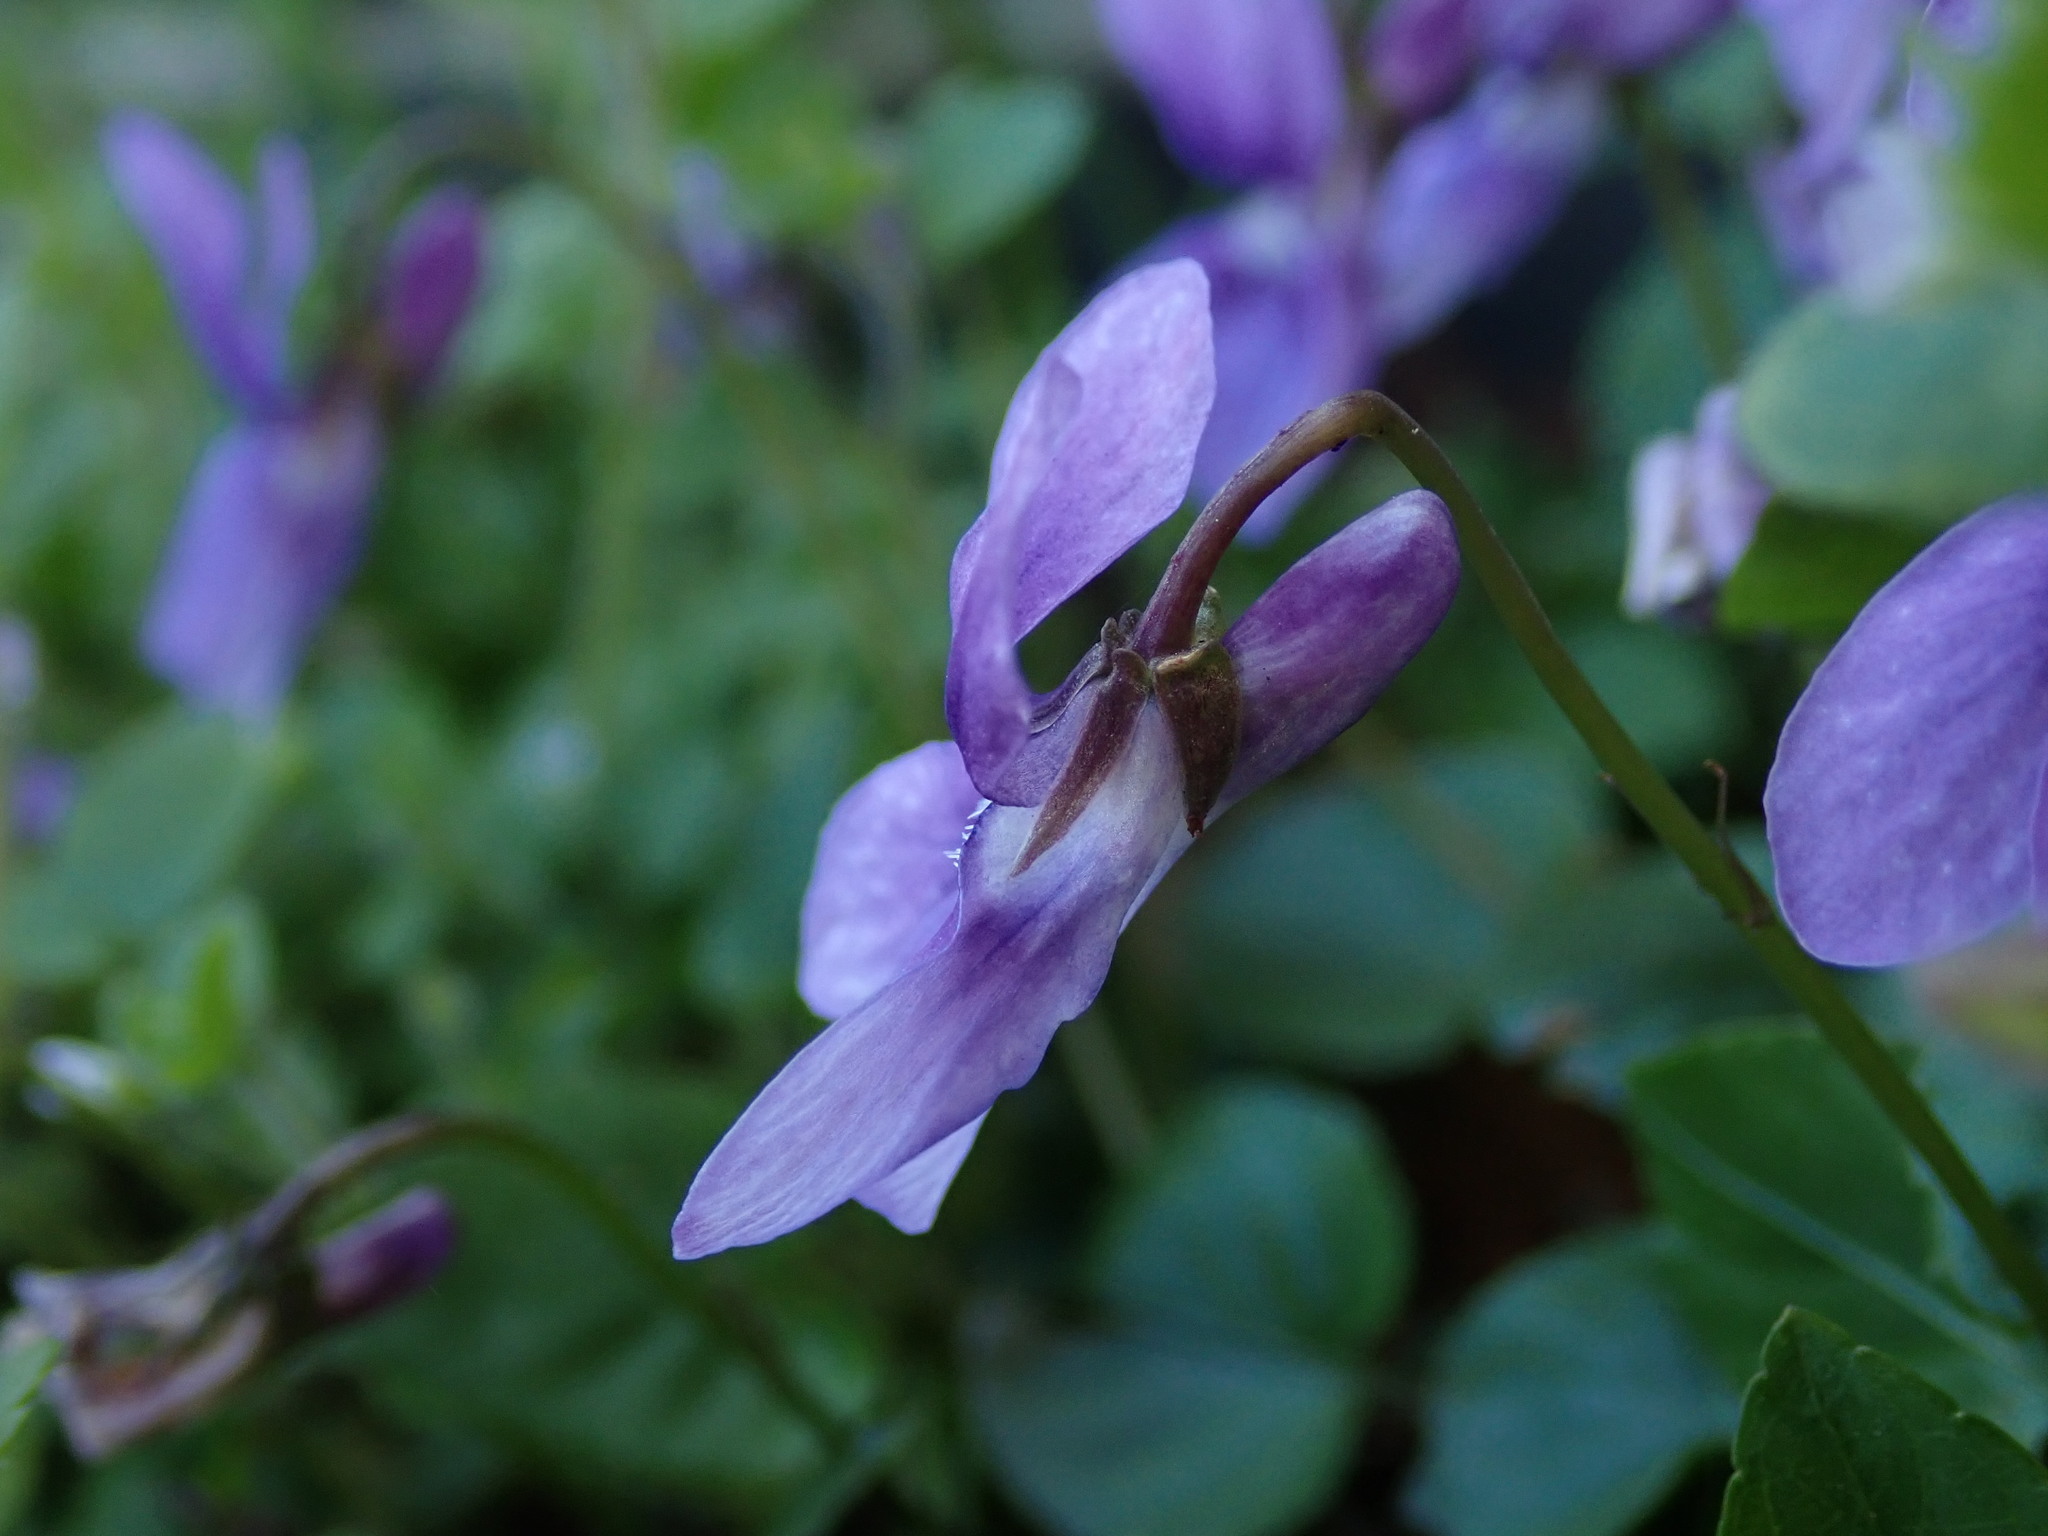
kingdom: Plantae
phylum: Tracheophyta
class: Magnoliopsida
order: Malpighiales
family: Violaceae
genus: Viola
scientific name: Viola reichenbachiana
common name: Early dog-violet
